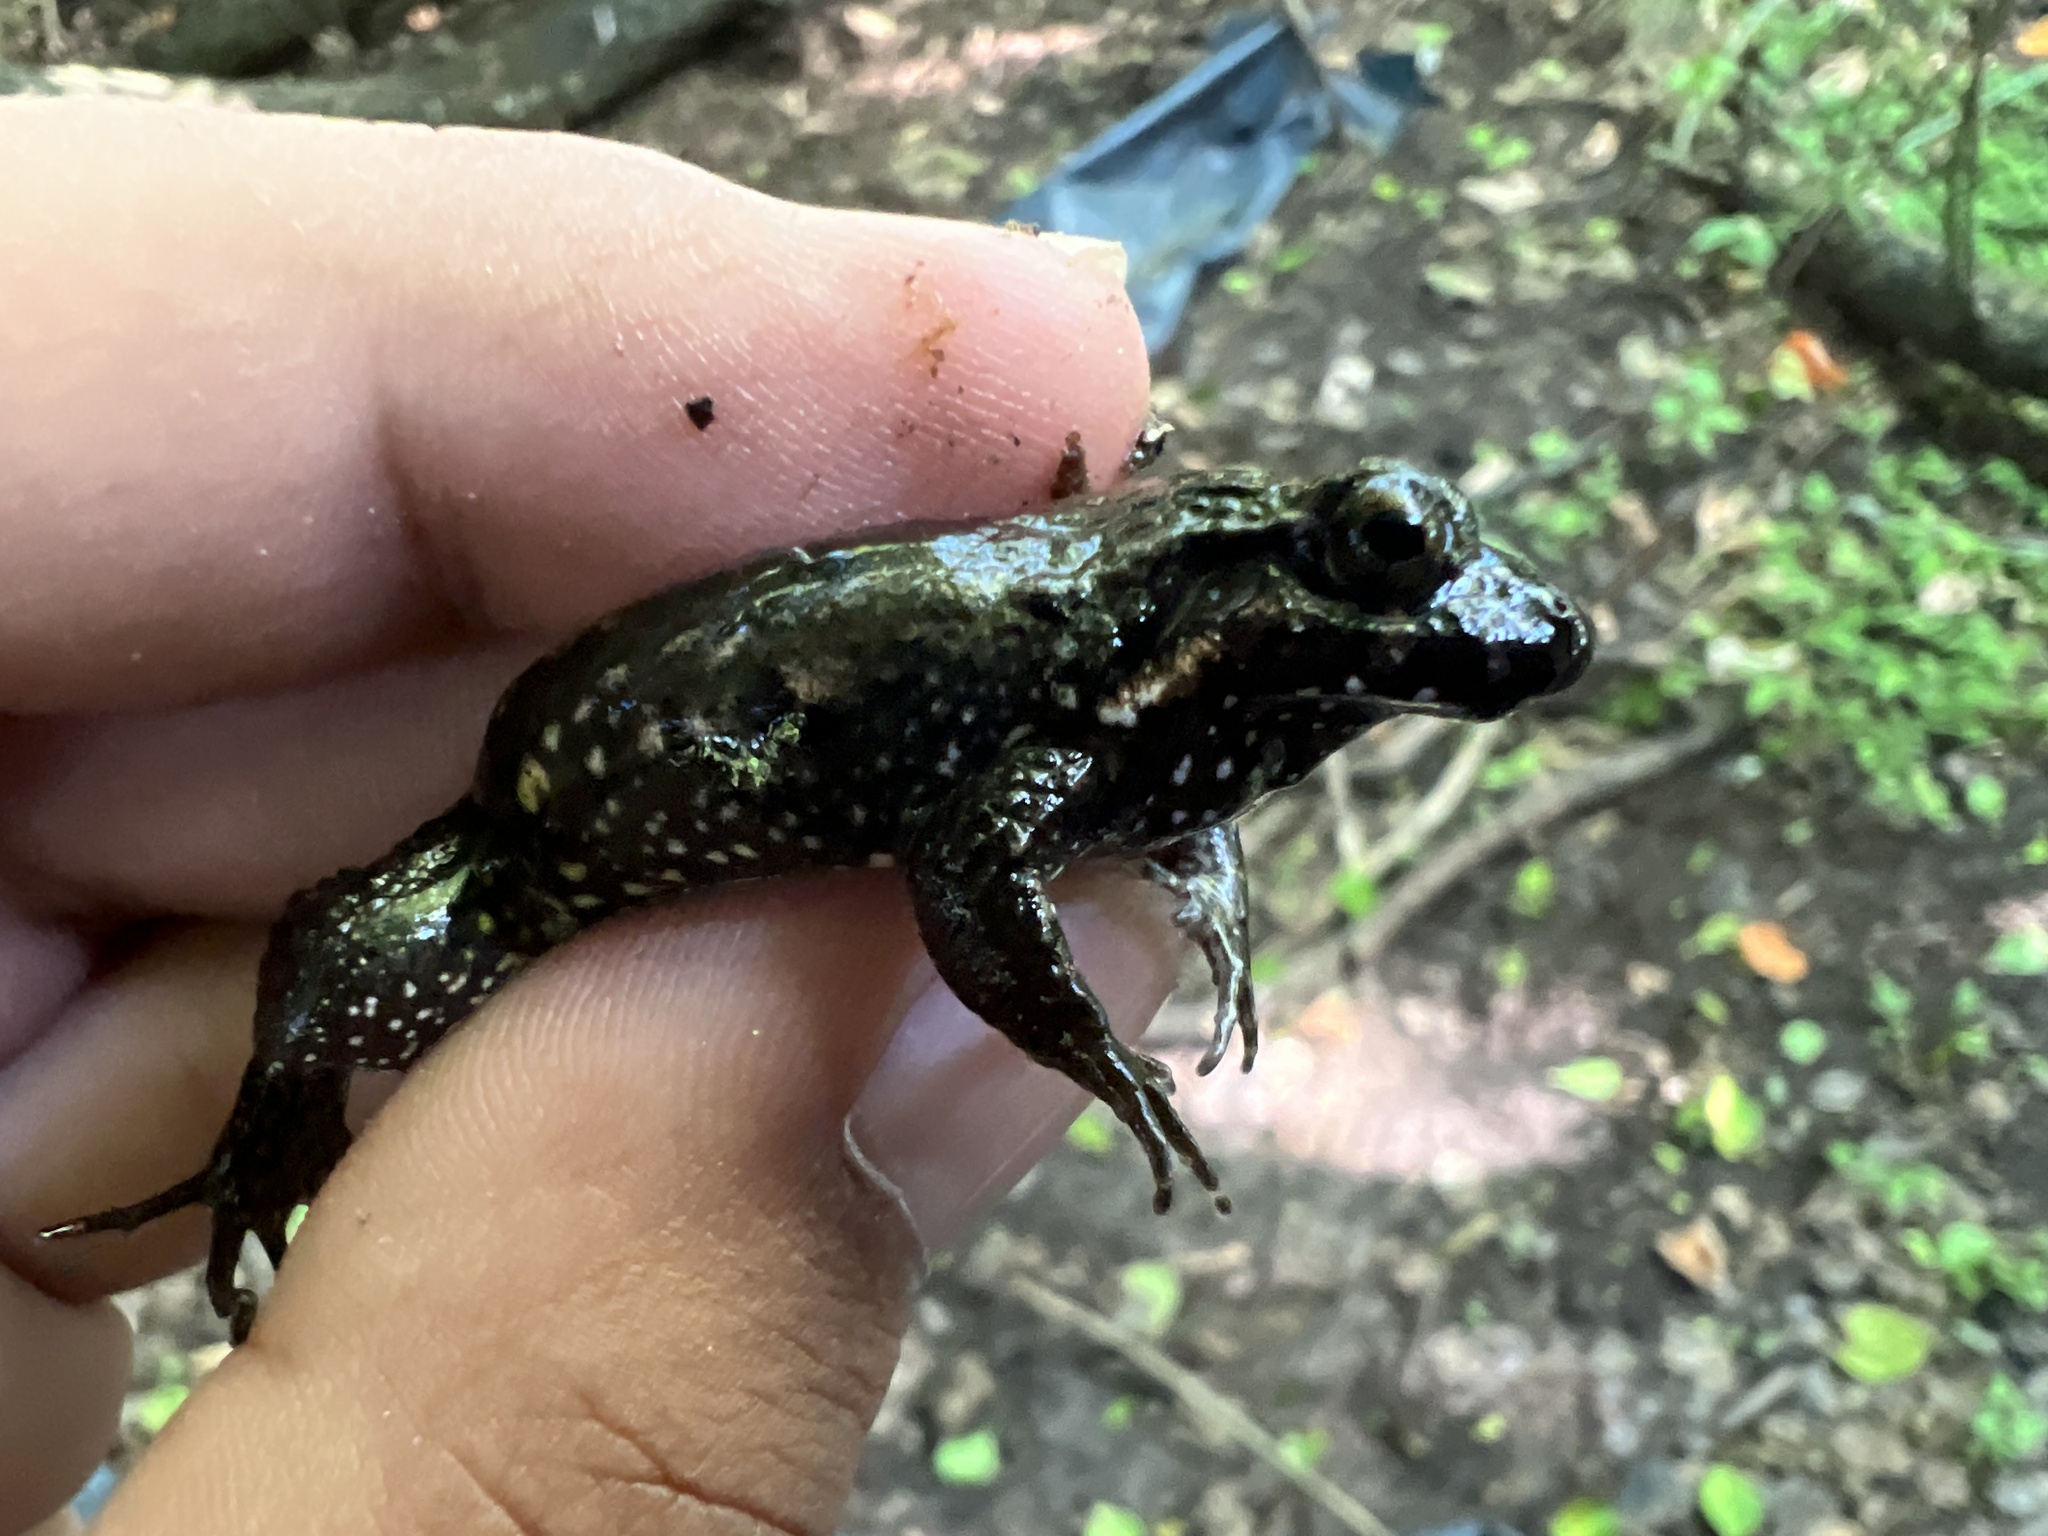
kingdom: Animalia
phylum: Chordata
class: Amphibia
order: Anura
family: Leptodactylidae
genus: Leptodactylus
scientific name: Leptodactylus podicipinus
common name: Pointedbelly frog
